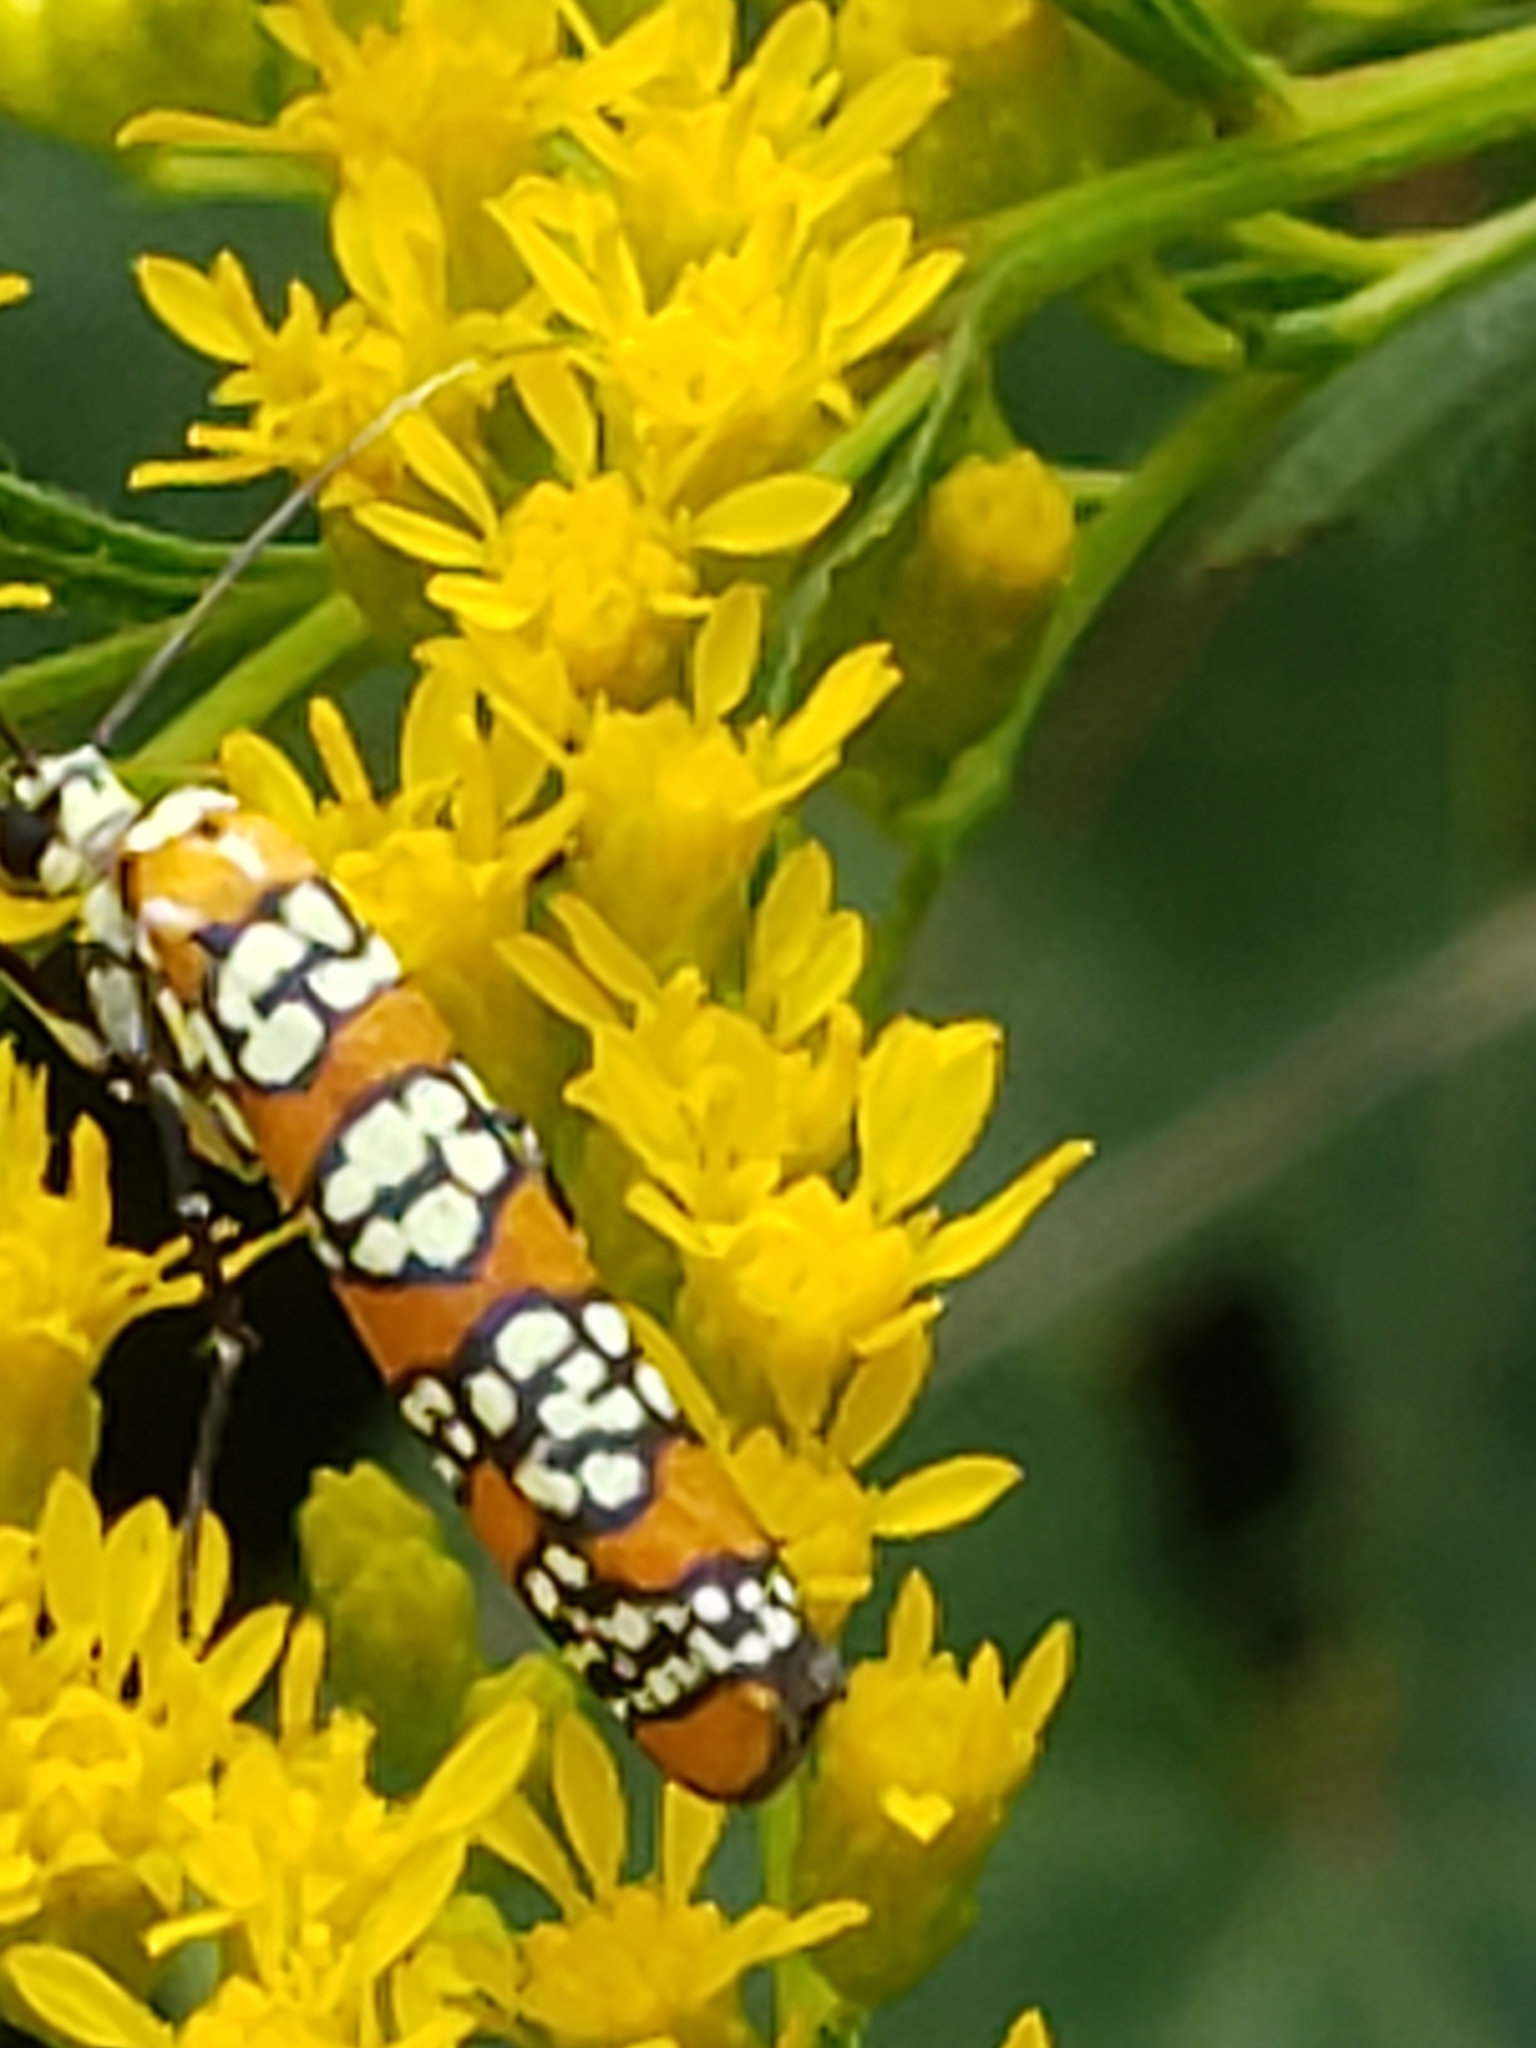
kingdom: Animalia
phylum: Arthropoda
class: Insecta
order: Lepidoptera
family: Attevidae
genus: Atteva
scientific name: Atteva punctella
